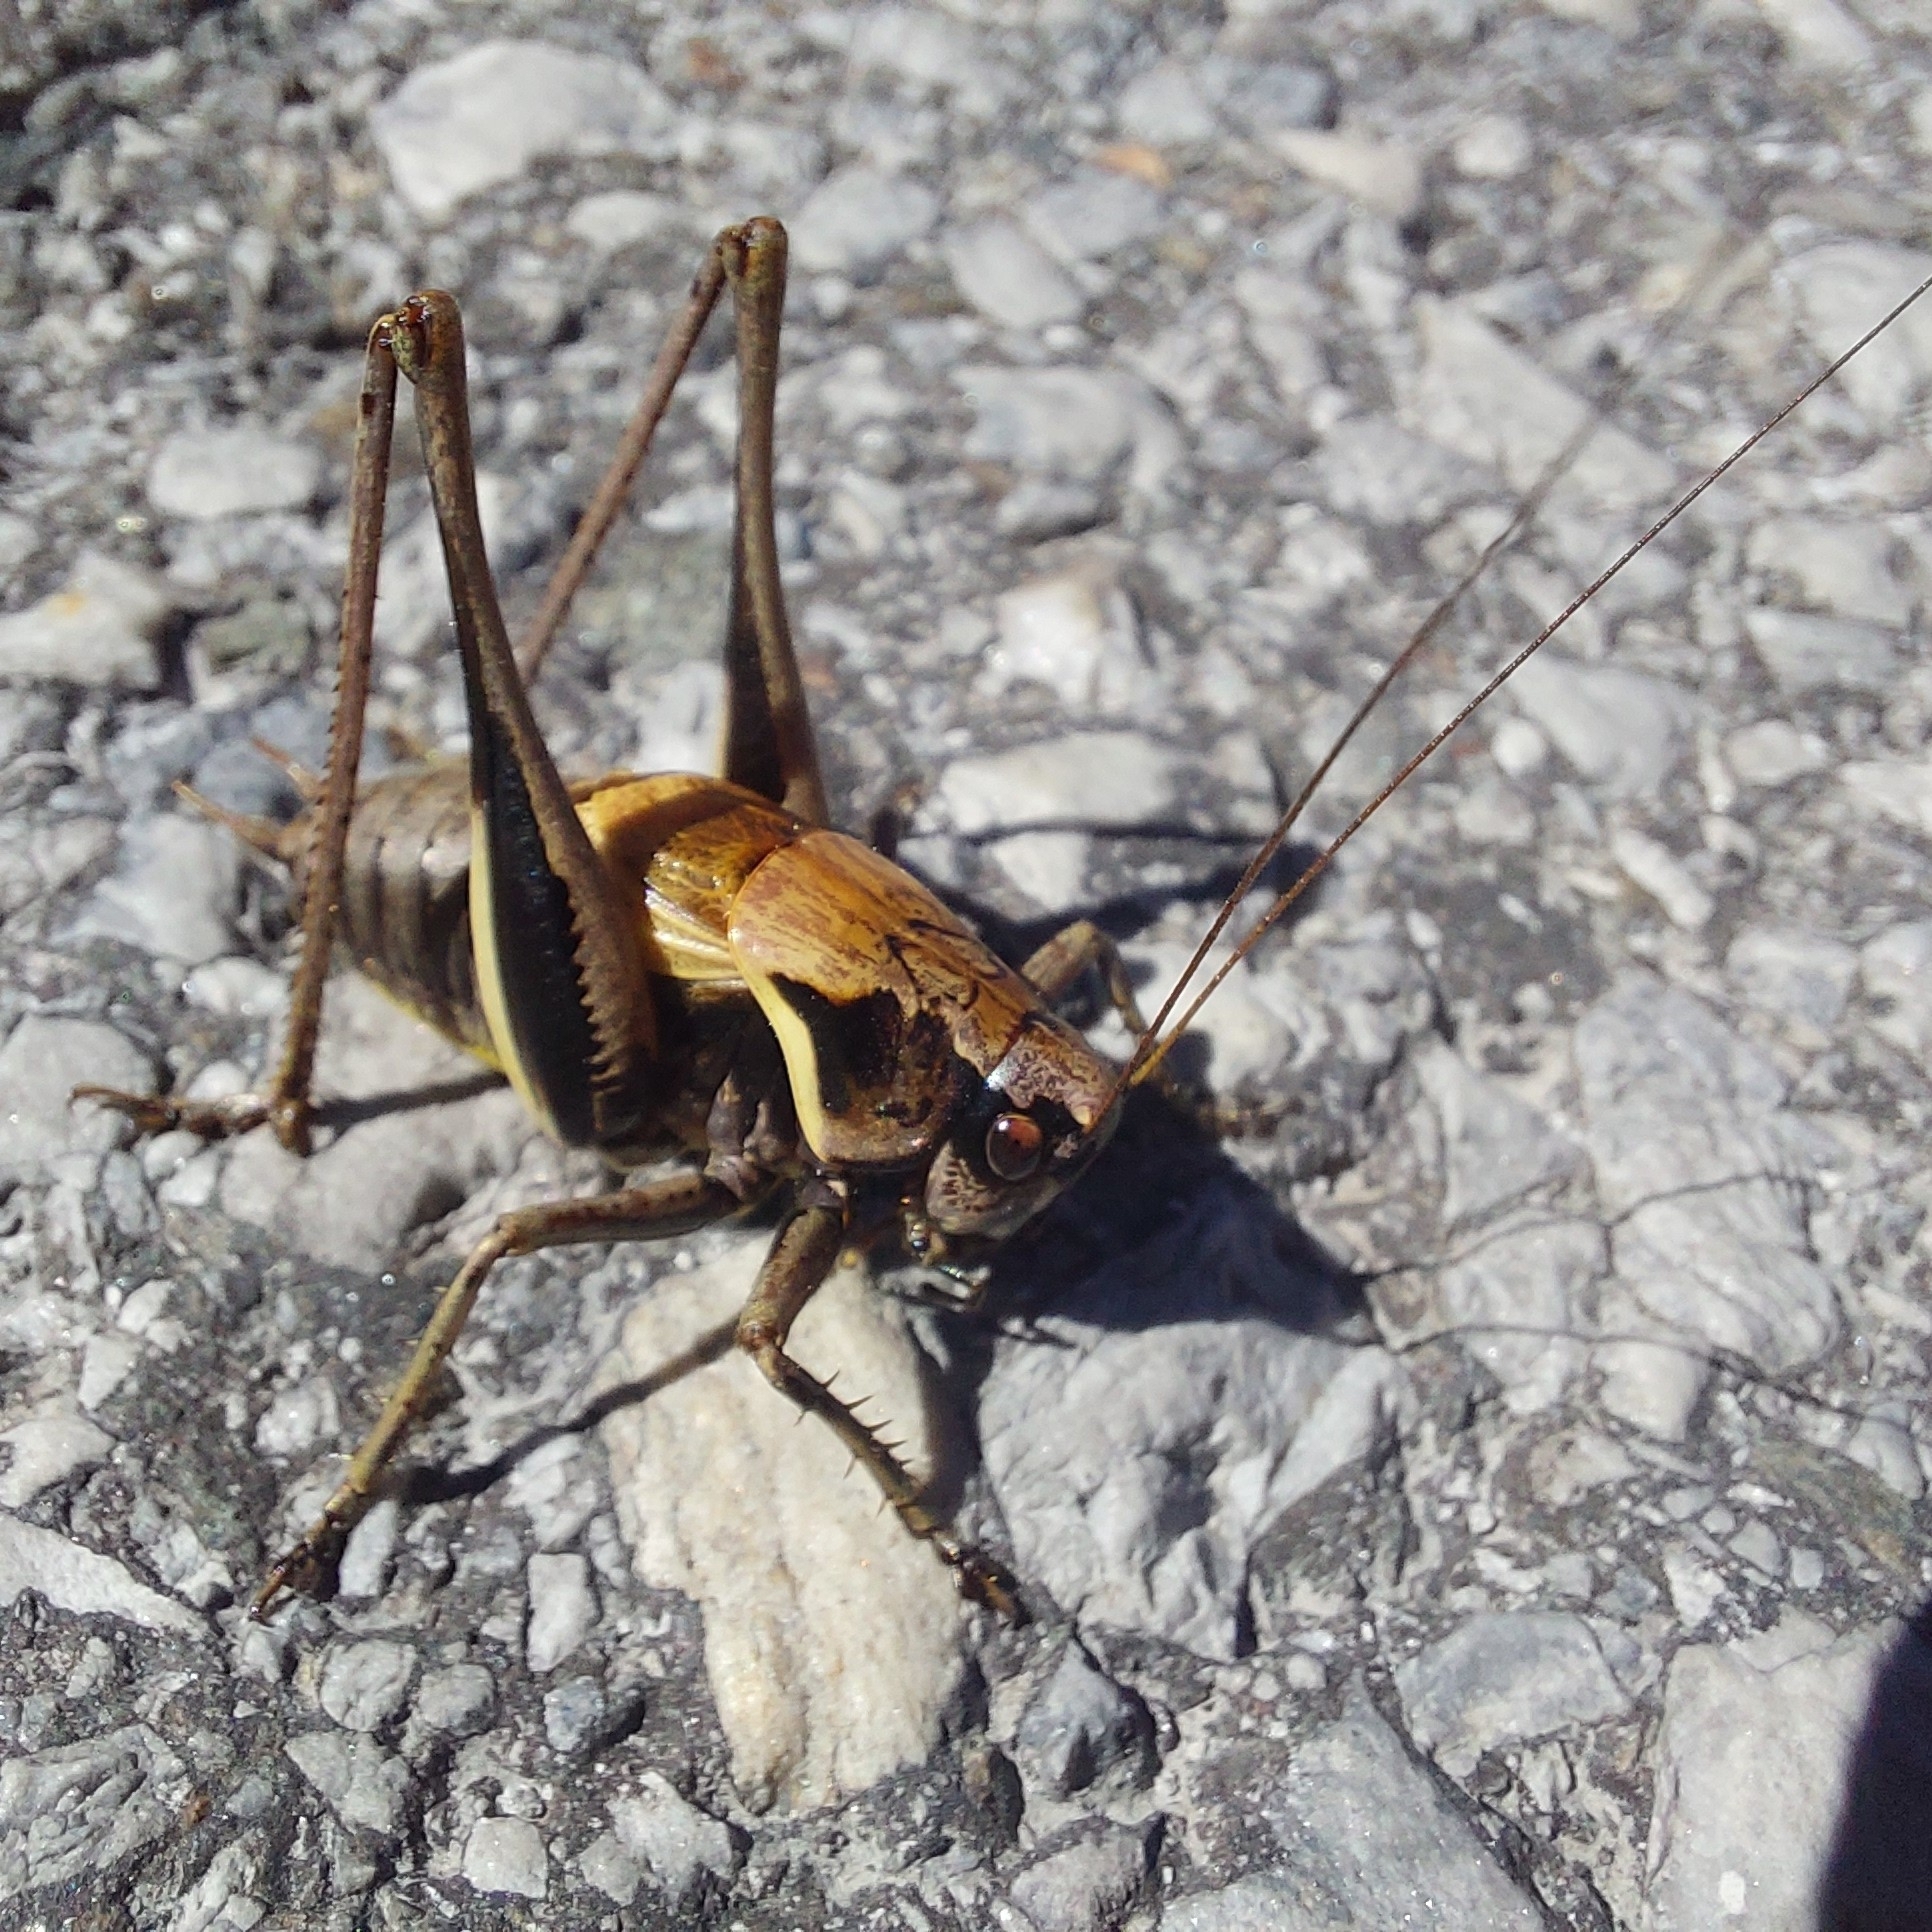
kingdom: Animalia
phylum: Arthropoda
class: Insecta
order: Orthoptera
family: Tettigoniidae
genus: Pholidoptera
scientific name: Pholidoptera aptera
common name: Alpine dark bush-cricket
